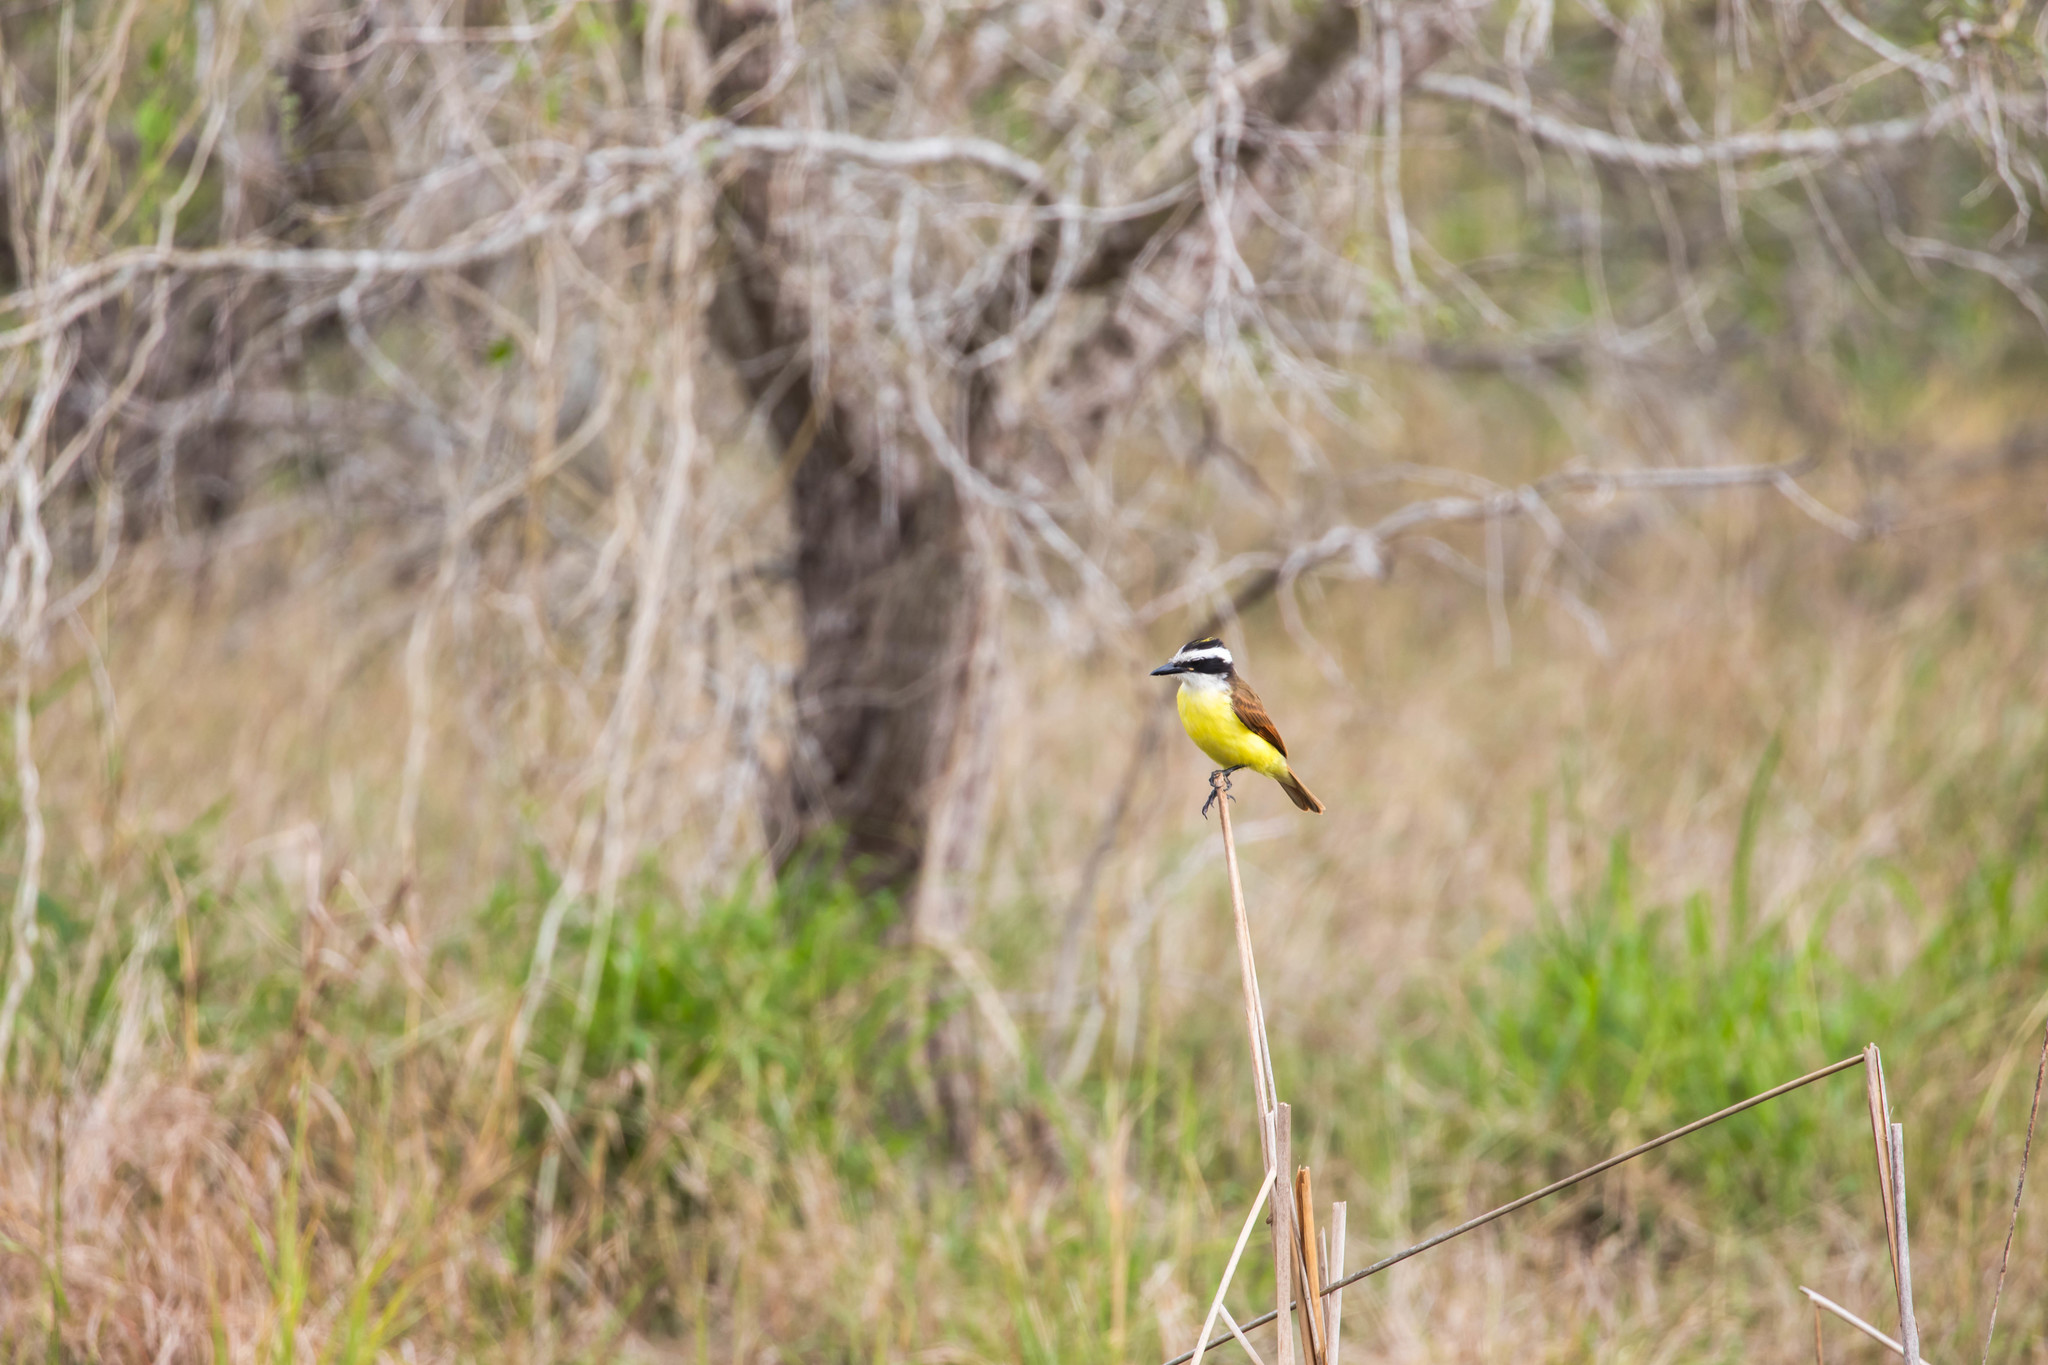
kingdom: Animalia
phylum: Chordata
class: Aves
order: Passeriformes
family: Tyrannidae
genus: Pitangus
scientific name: Pitangus sulphuratus
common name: Great kiskadee
